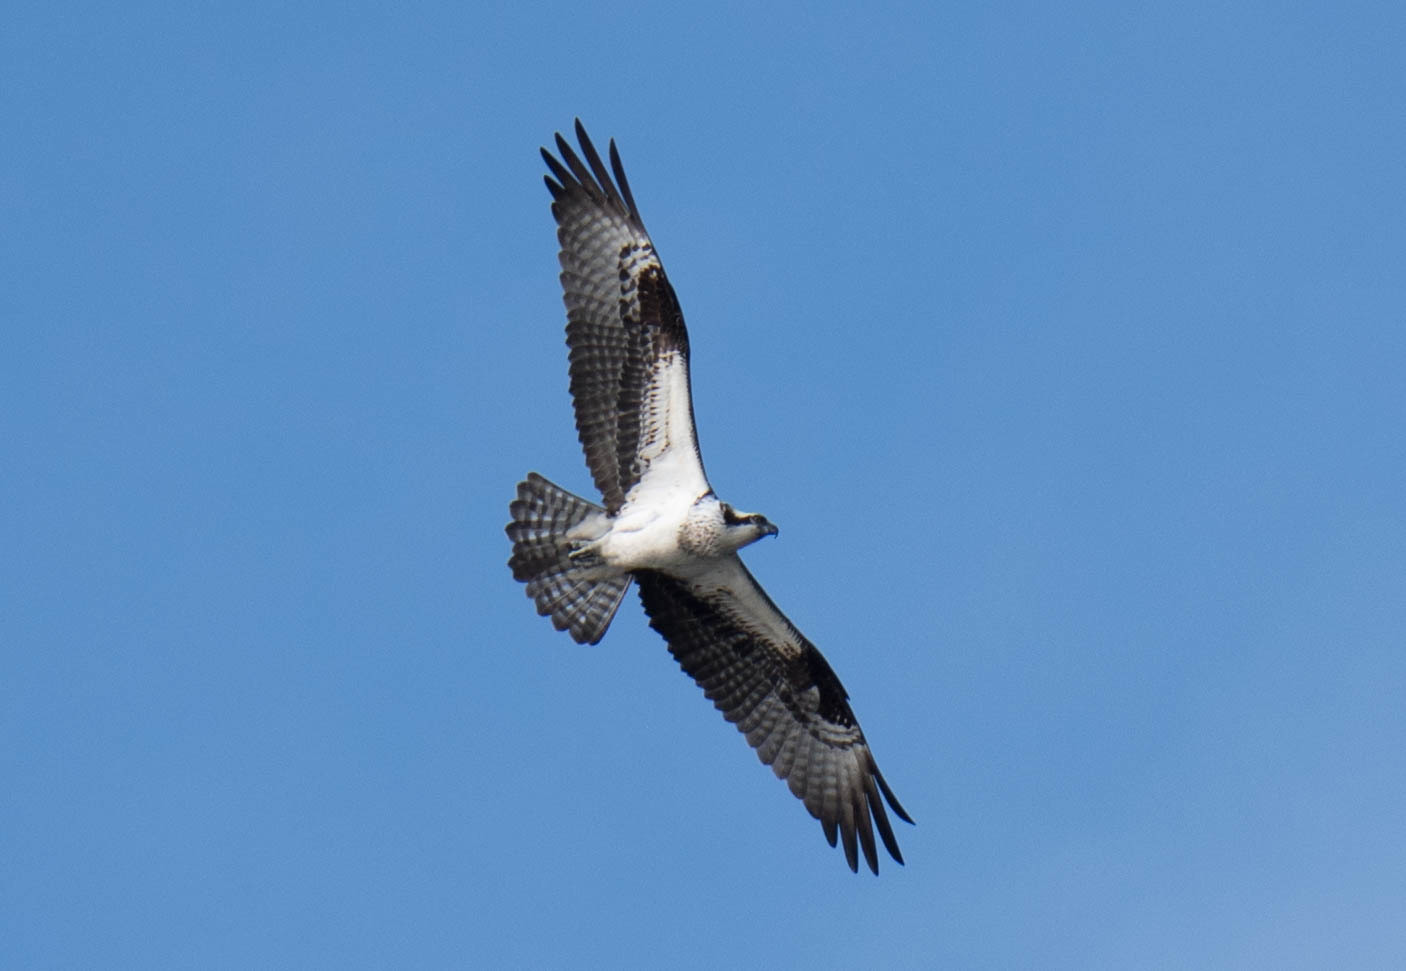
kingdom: Animalia
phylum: Chordata
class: Aves
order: Accipitriformes
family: Pandionidae
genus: Pandion
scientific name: Pandion haliaetus
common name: Osprey
